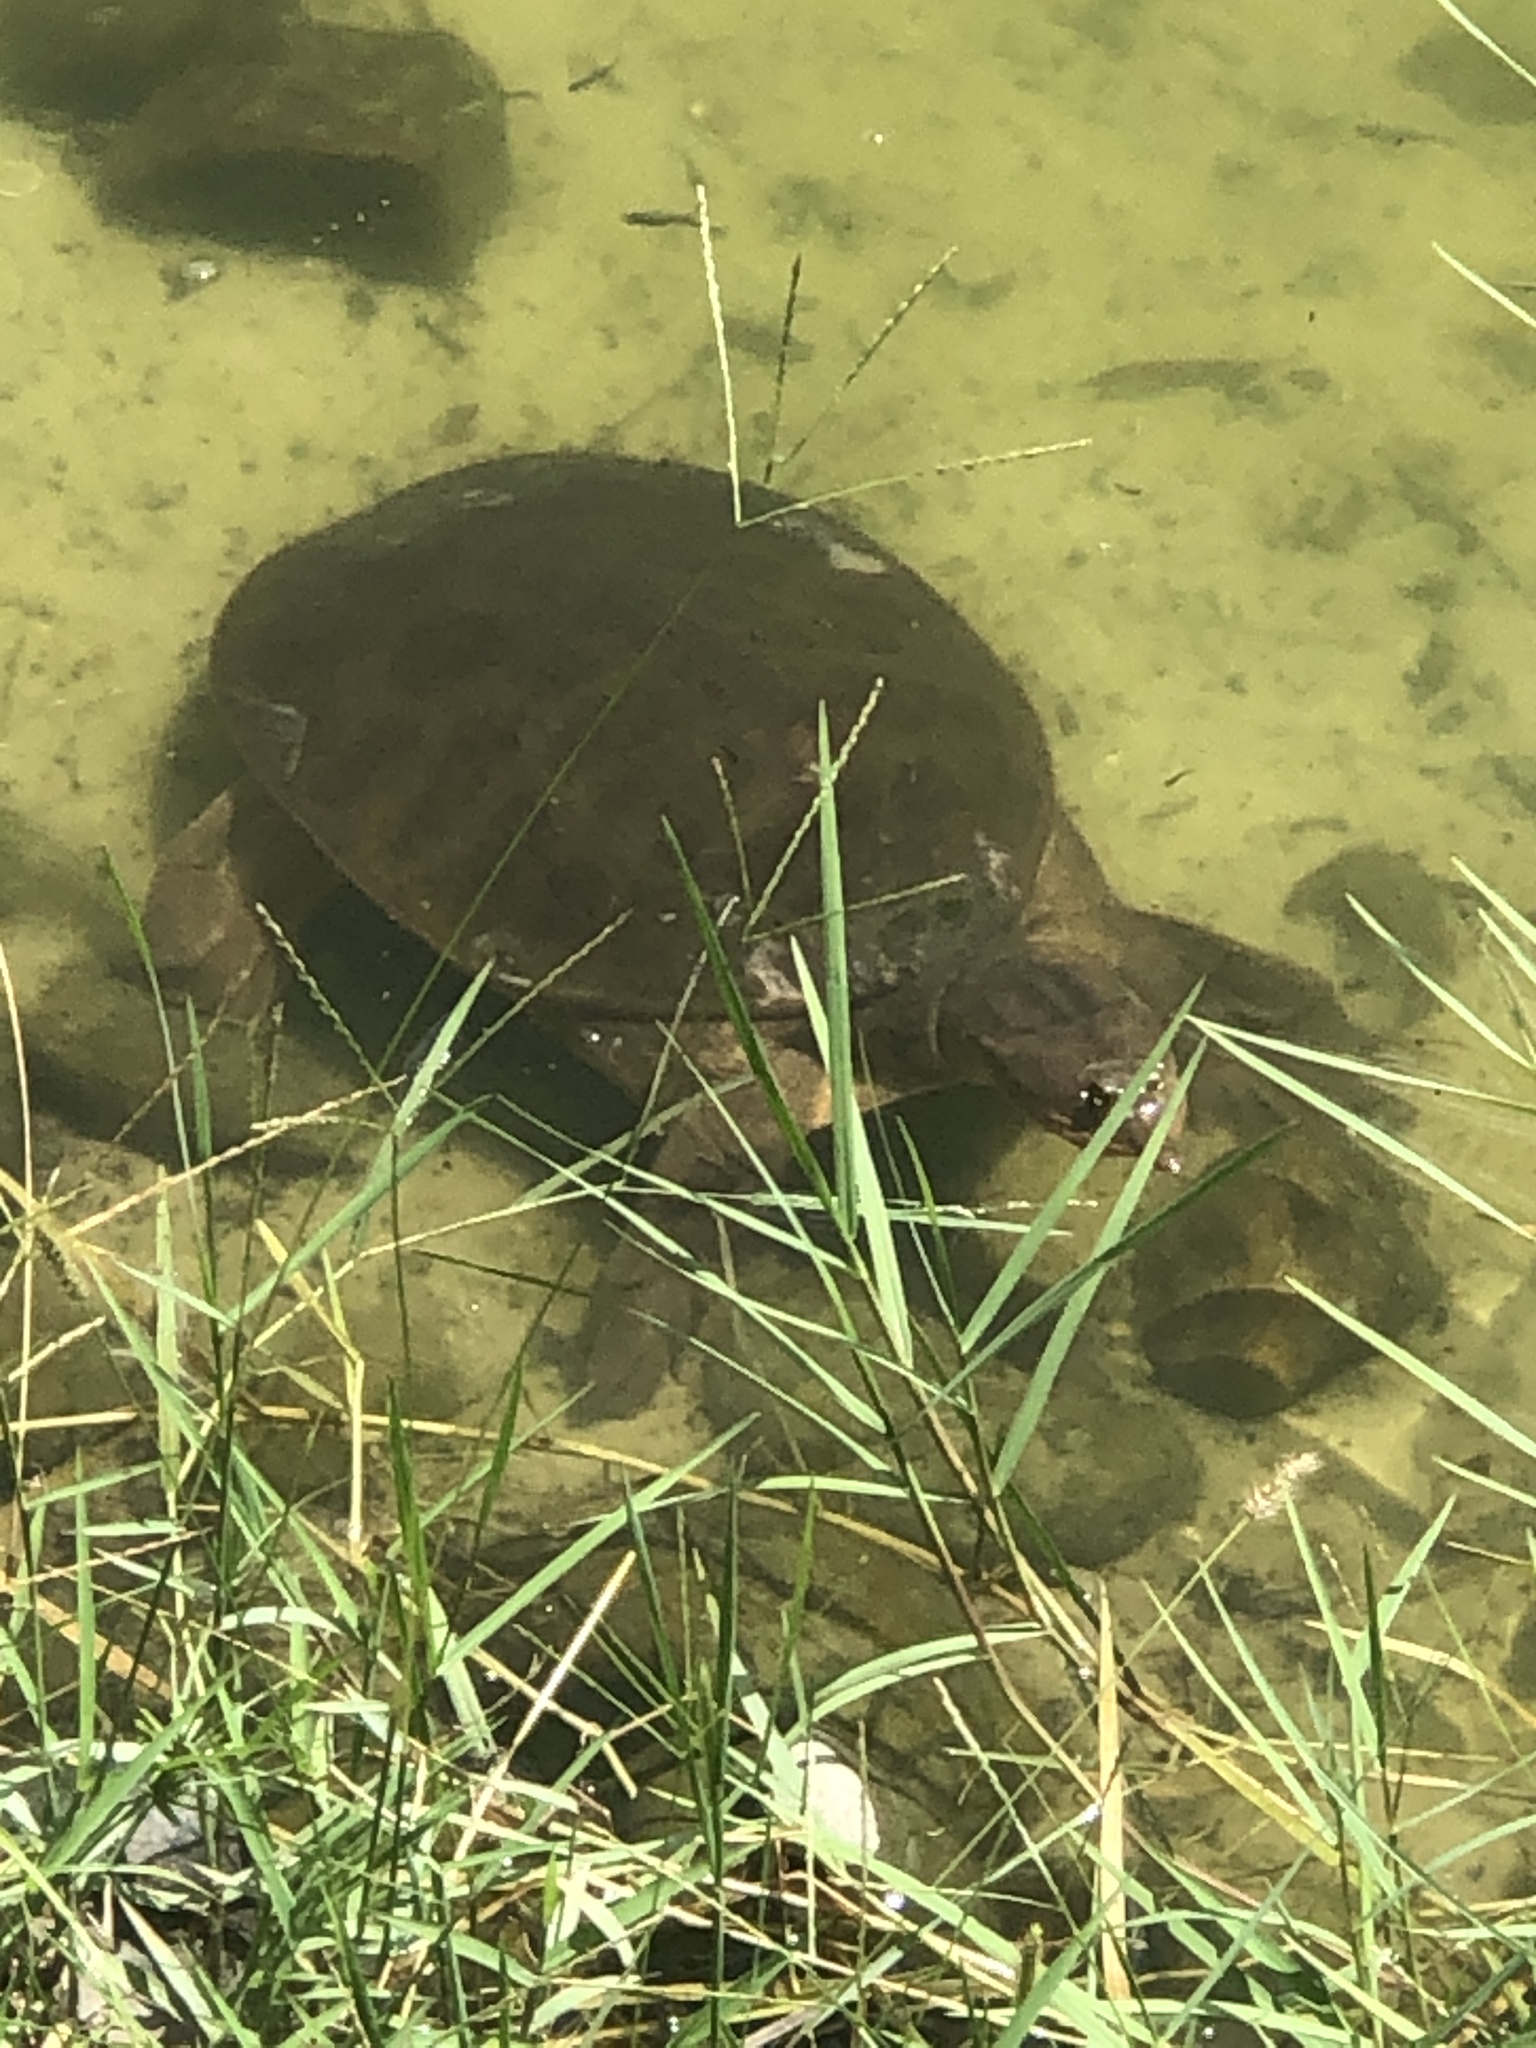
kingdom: Animalia
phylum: Chordata
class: Testudines
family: Trionychidae
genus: Apalone
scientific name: Apalone ferox
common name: Florida softshell turtle
